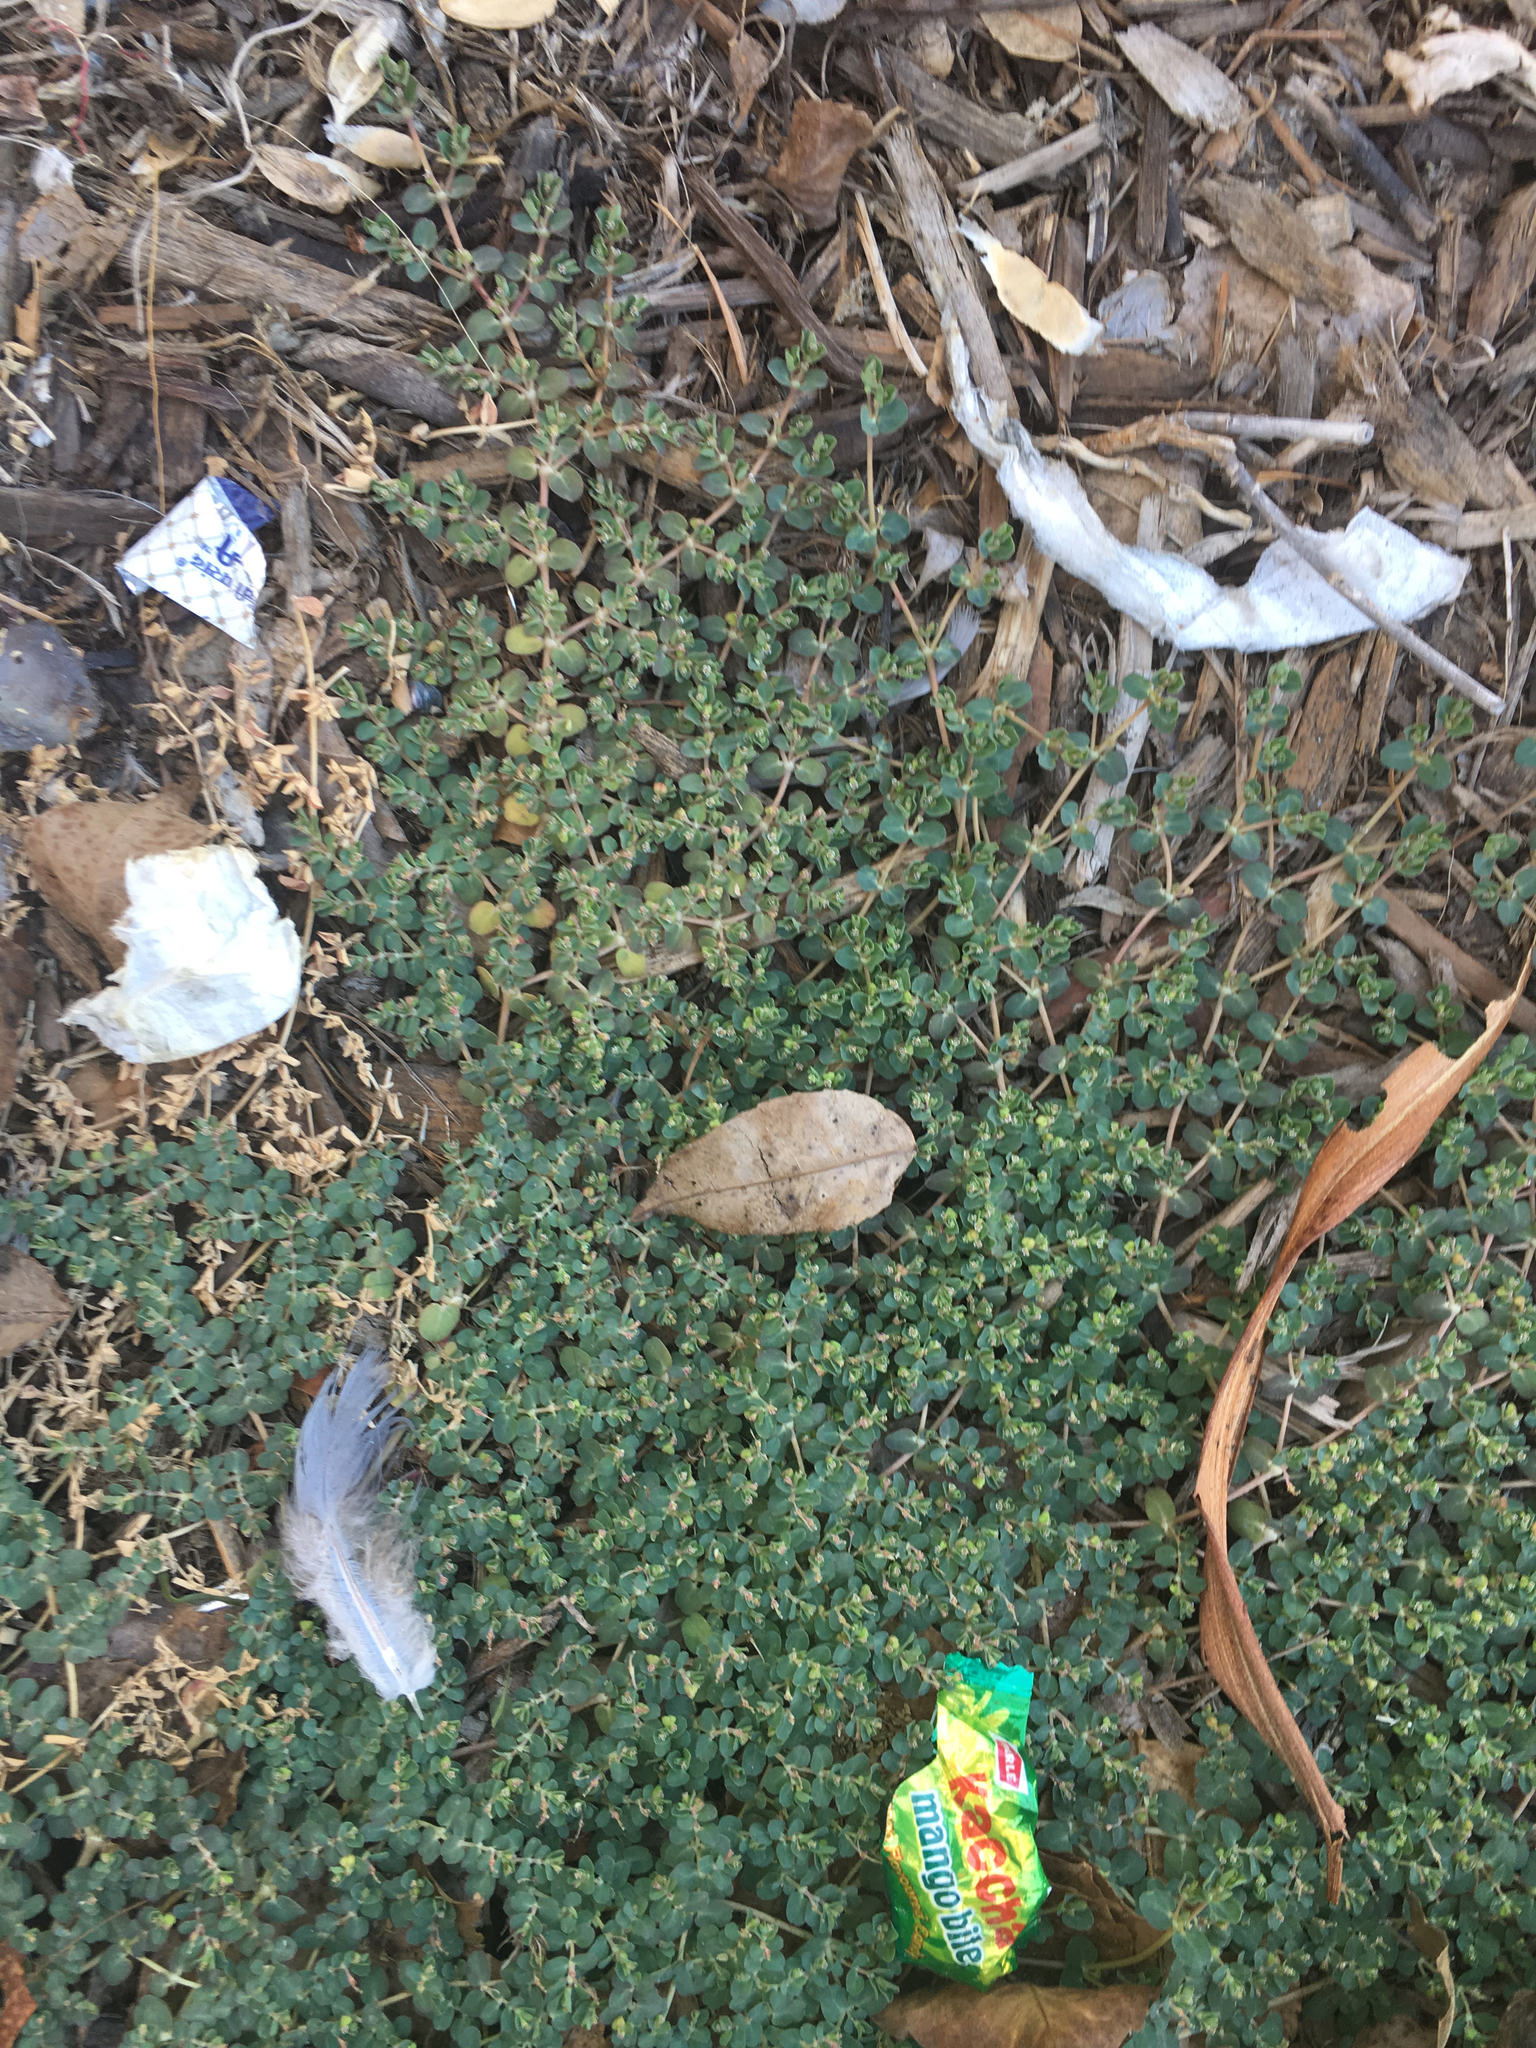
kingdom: Plantae
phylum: Tracheophyta
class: Magnoliopsida
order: Malpighiales
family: Euphorbiaceae
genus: Euphorbia
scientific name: Euphorbia serpens
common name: Matted sandmat
